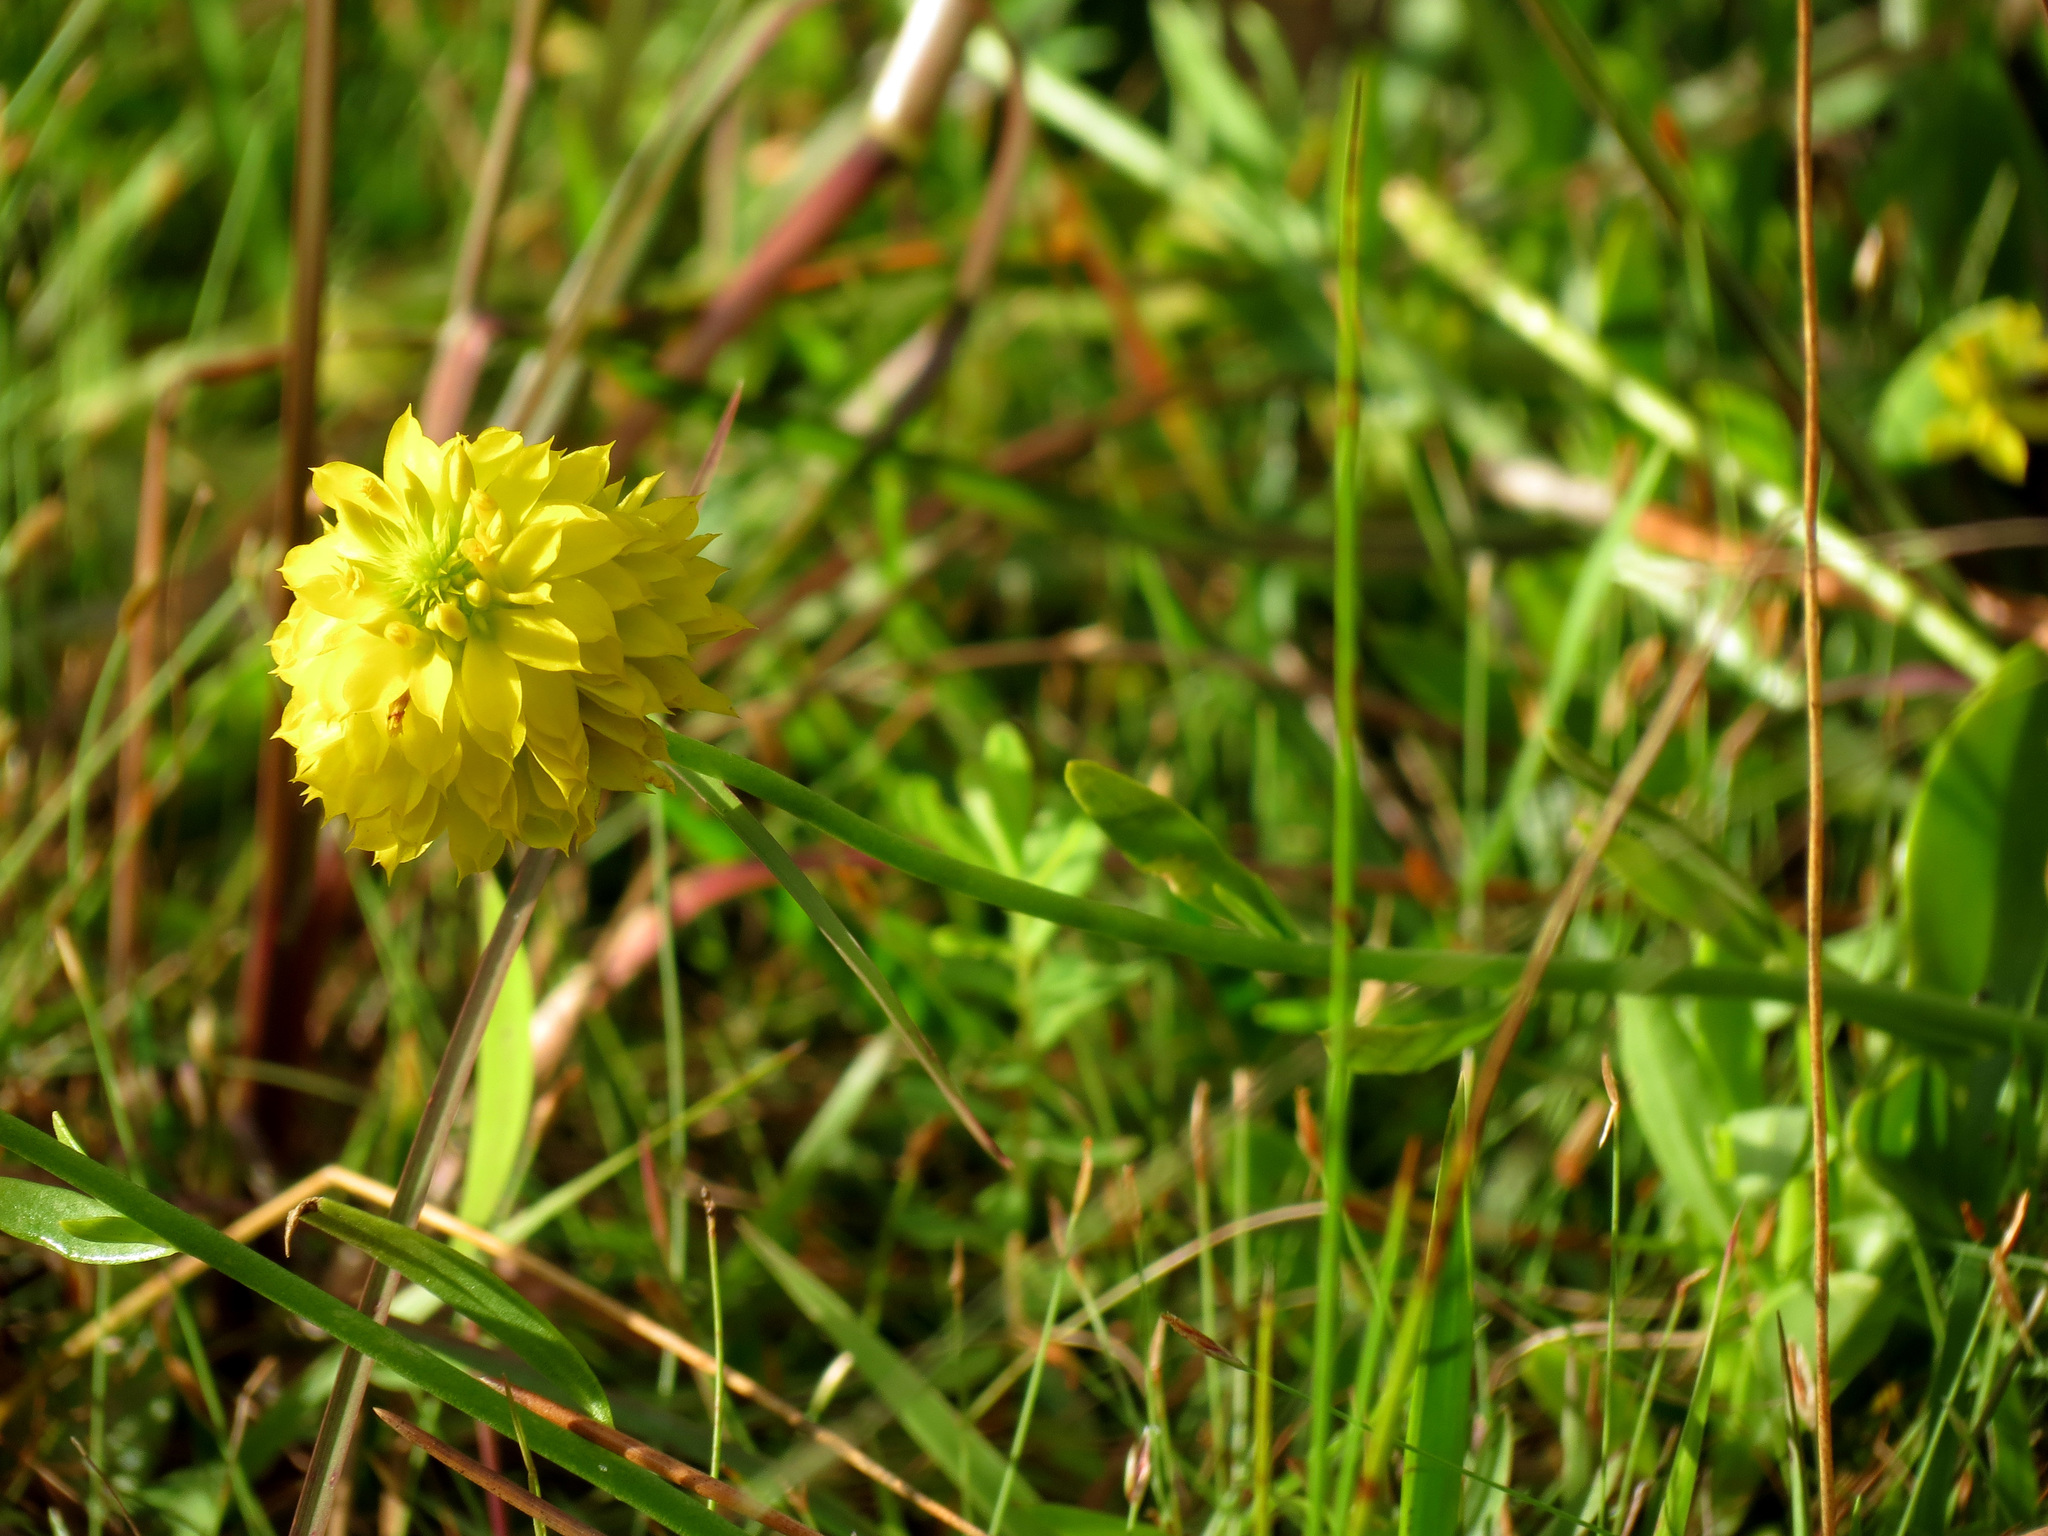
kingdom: Plantae
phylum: Tracheophyta
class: Magnoliopsida
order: Fabales
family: Polygalaceae
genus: Polygala
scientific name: Polygala rugelii
